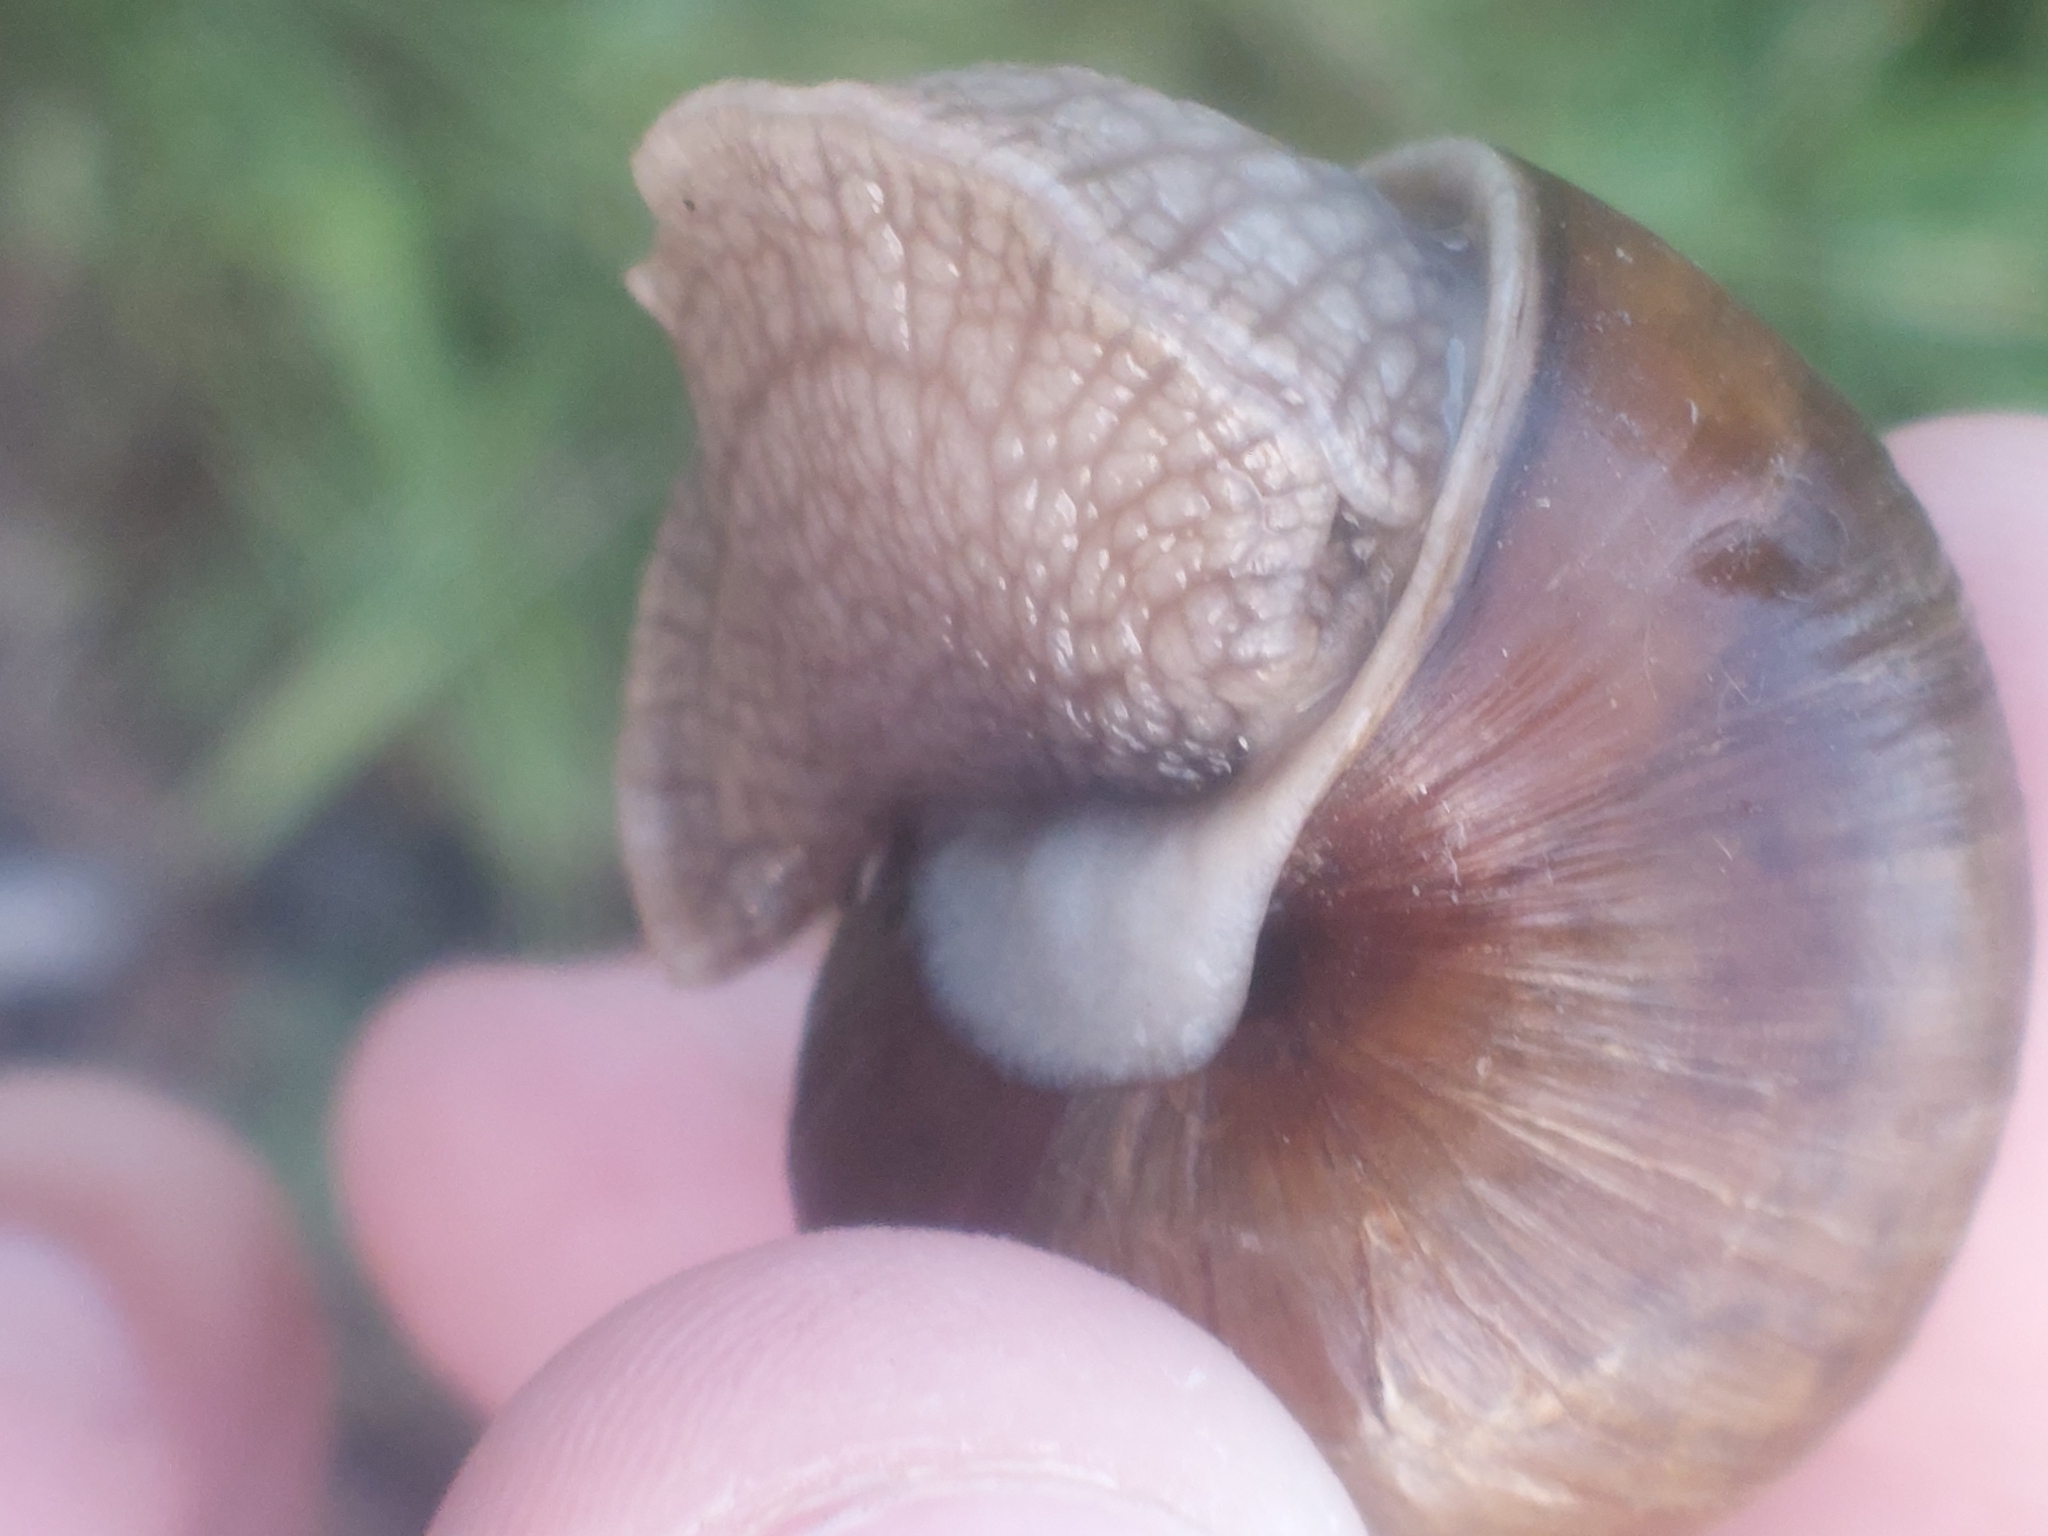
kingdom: Animalia
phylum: Mollusca
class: Gastropoda
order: Stylommatophora
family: Helicidae
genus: Helix
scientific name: Helix pomatia
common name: Roman snail
